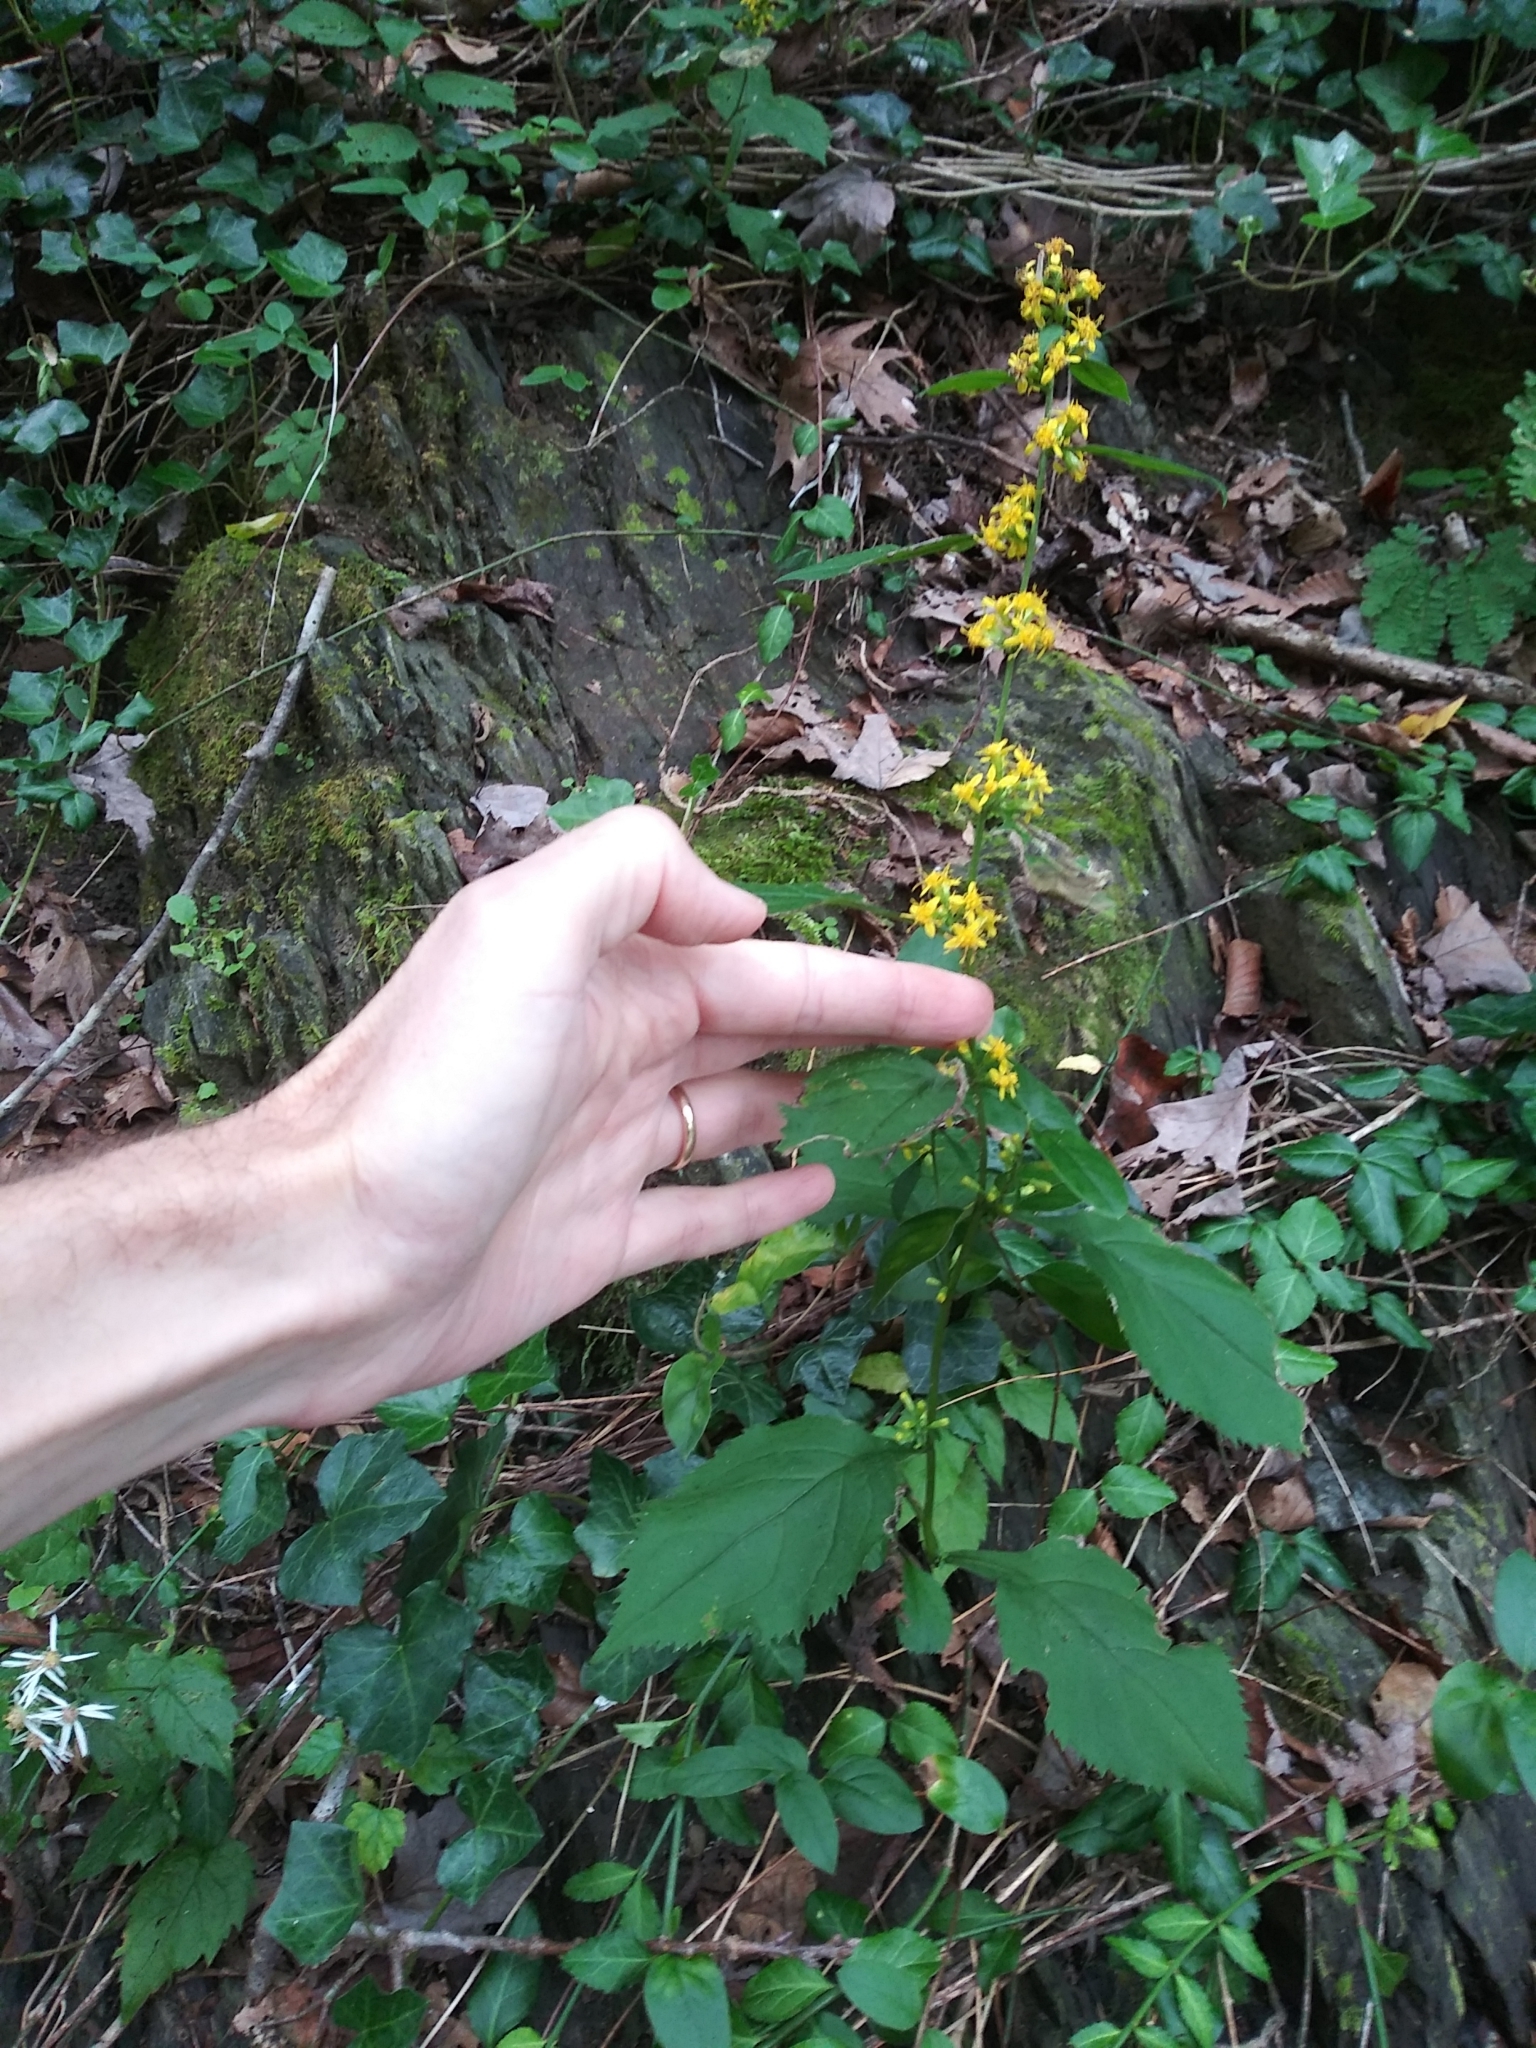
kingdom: Plantae
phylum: Tracheophyta
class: Magnoliopsida
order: Asterales
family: Asteraceae
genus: Solidago
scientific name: Solidago flexicaulis
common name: Zig-zag goldenrod
